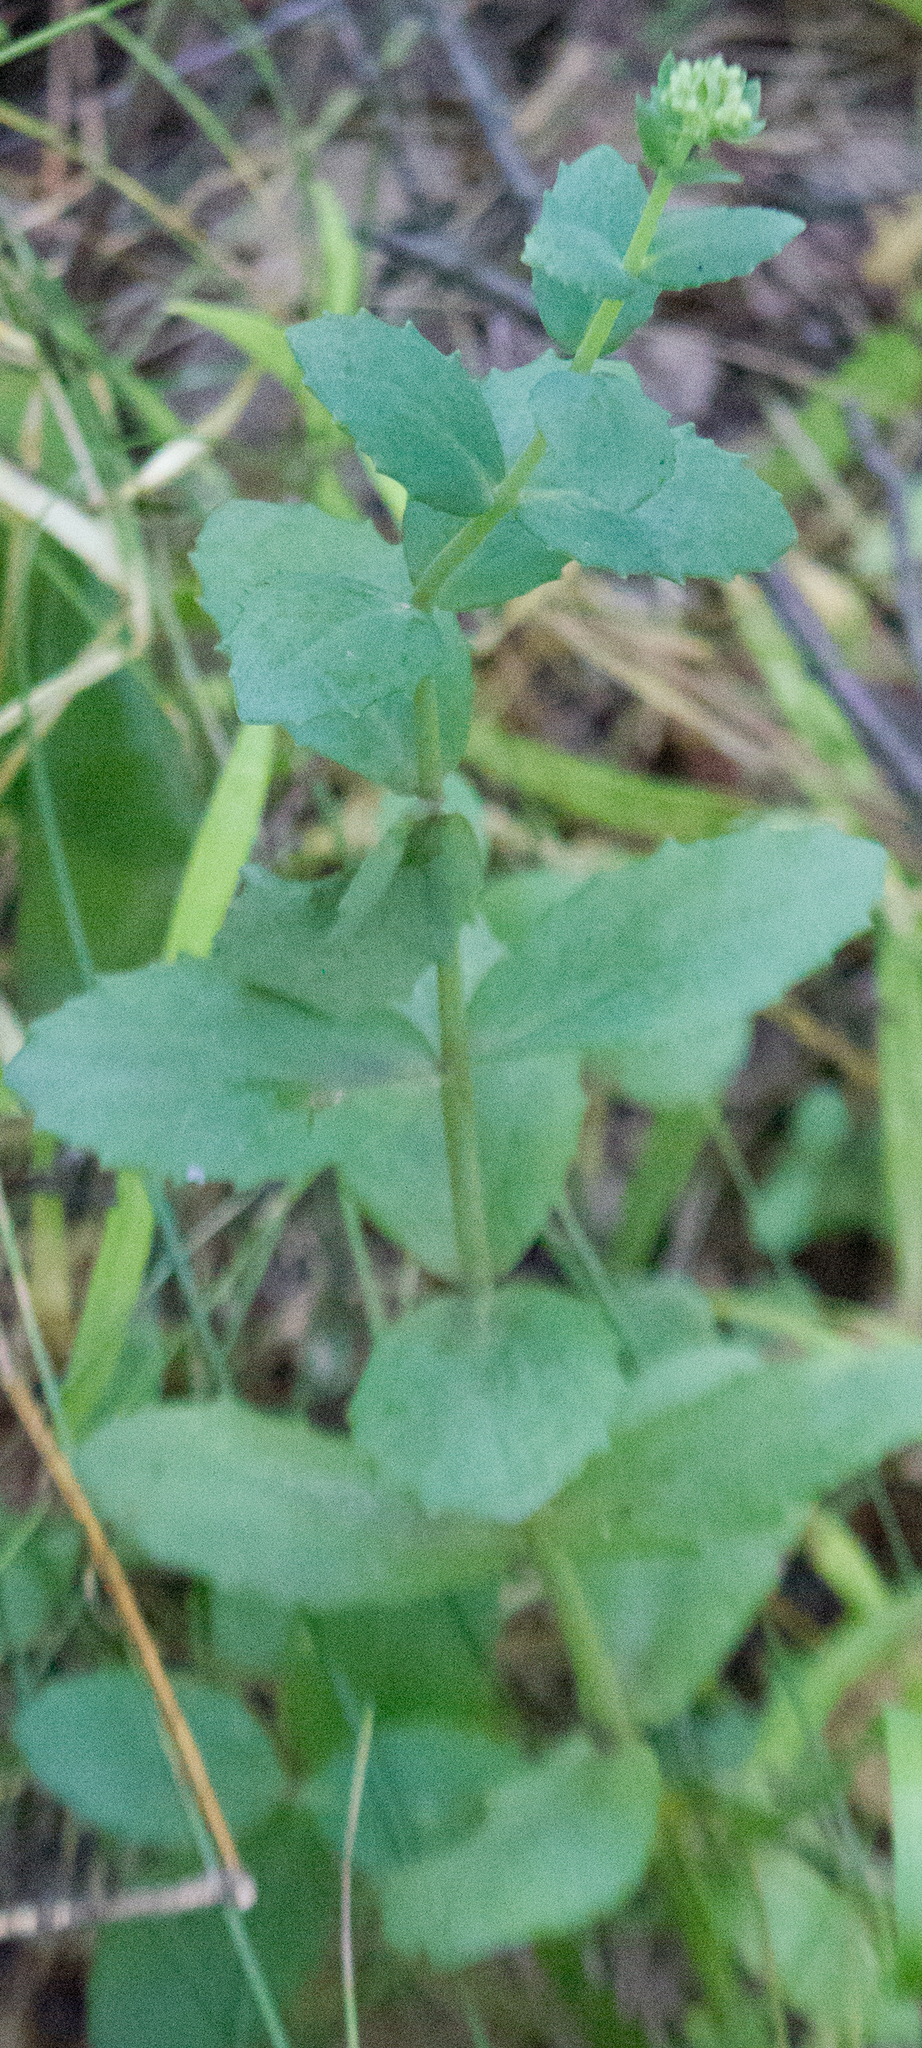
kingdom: Plantae
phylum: Tracheophyta
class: Magnoliopsida
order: Saxifragales
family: Crassulaceae
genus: Hylotelephium
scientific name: Hylotelephium maximum
